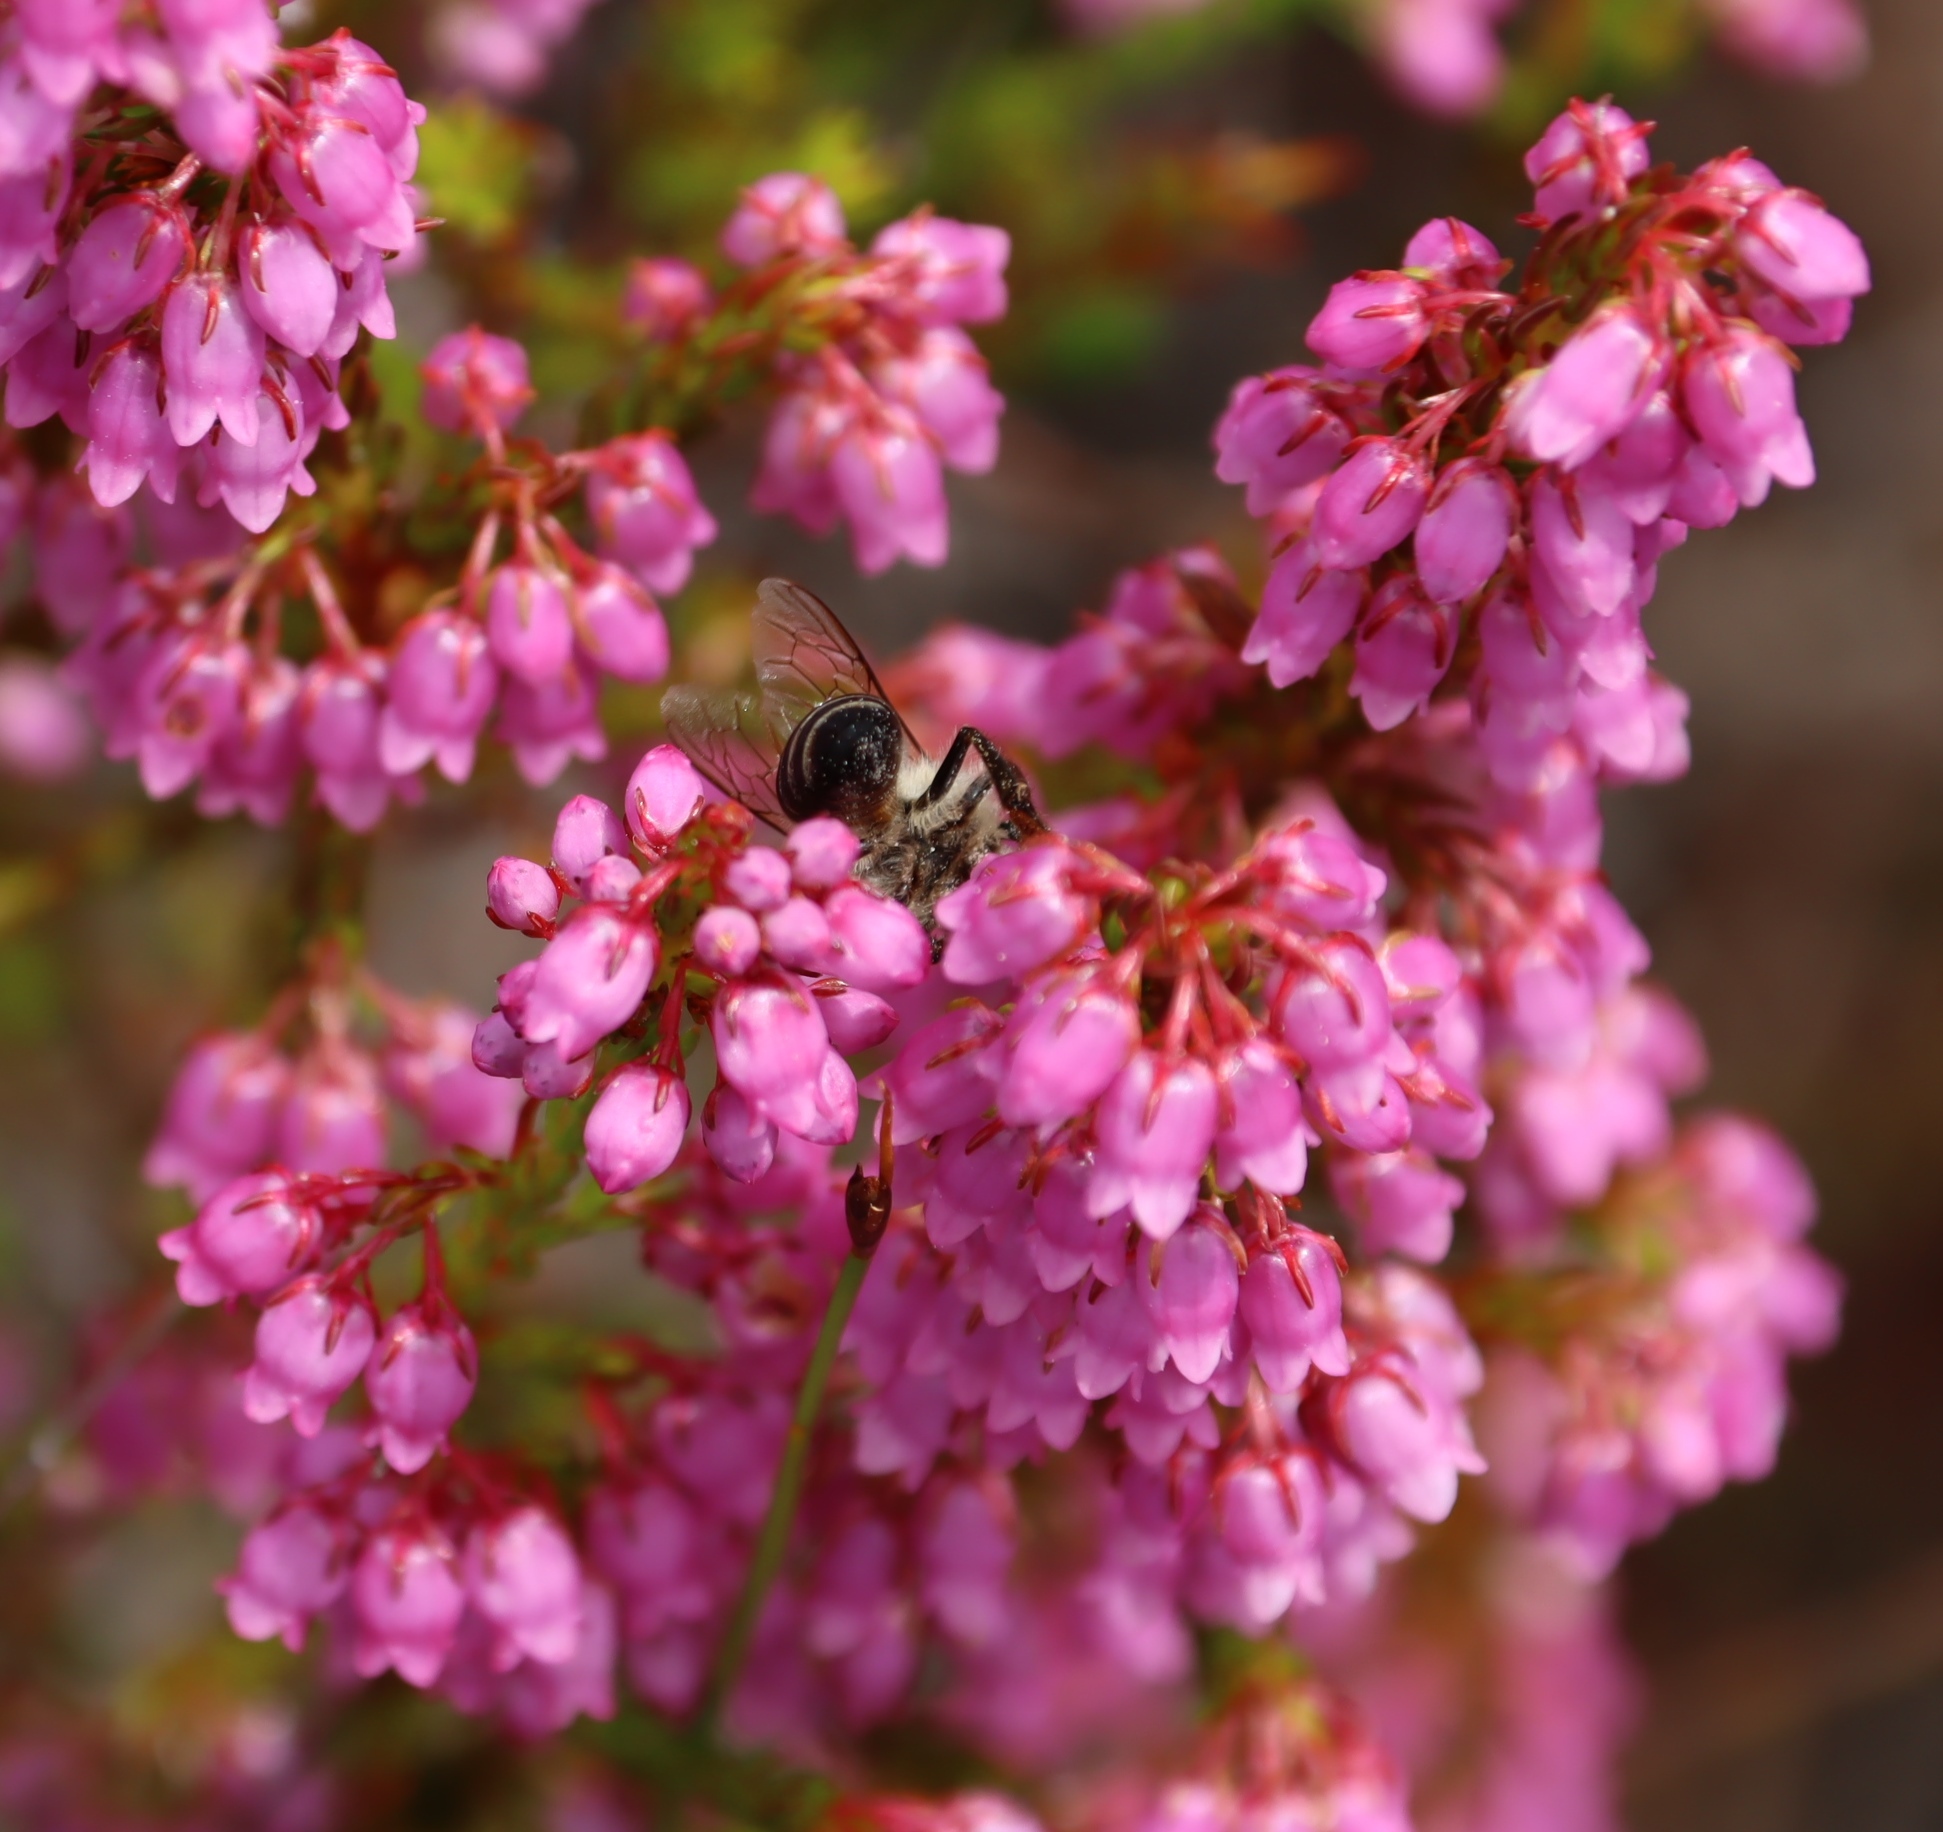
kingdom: Animalia
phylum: Arthropoda
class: Insecta
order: Hymenoptera
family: Apidae
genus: Apis
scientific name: Apis mellifera
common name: Honey bee
